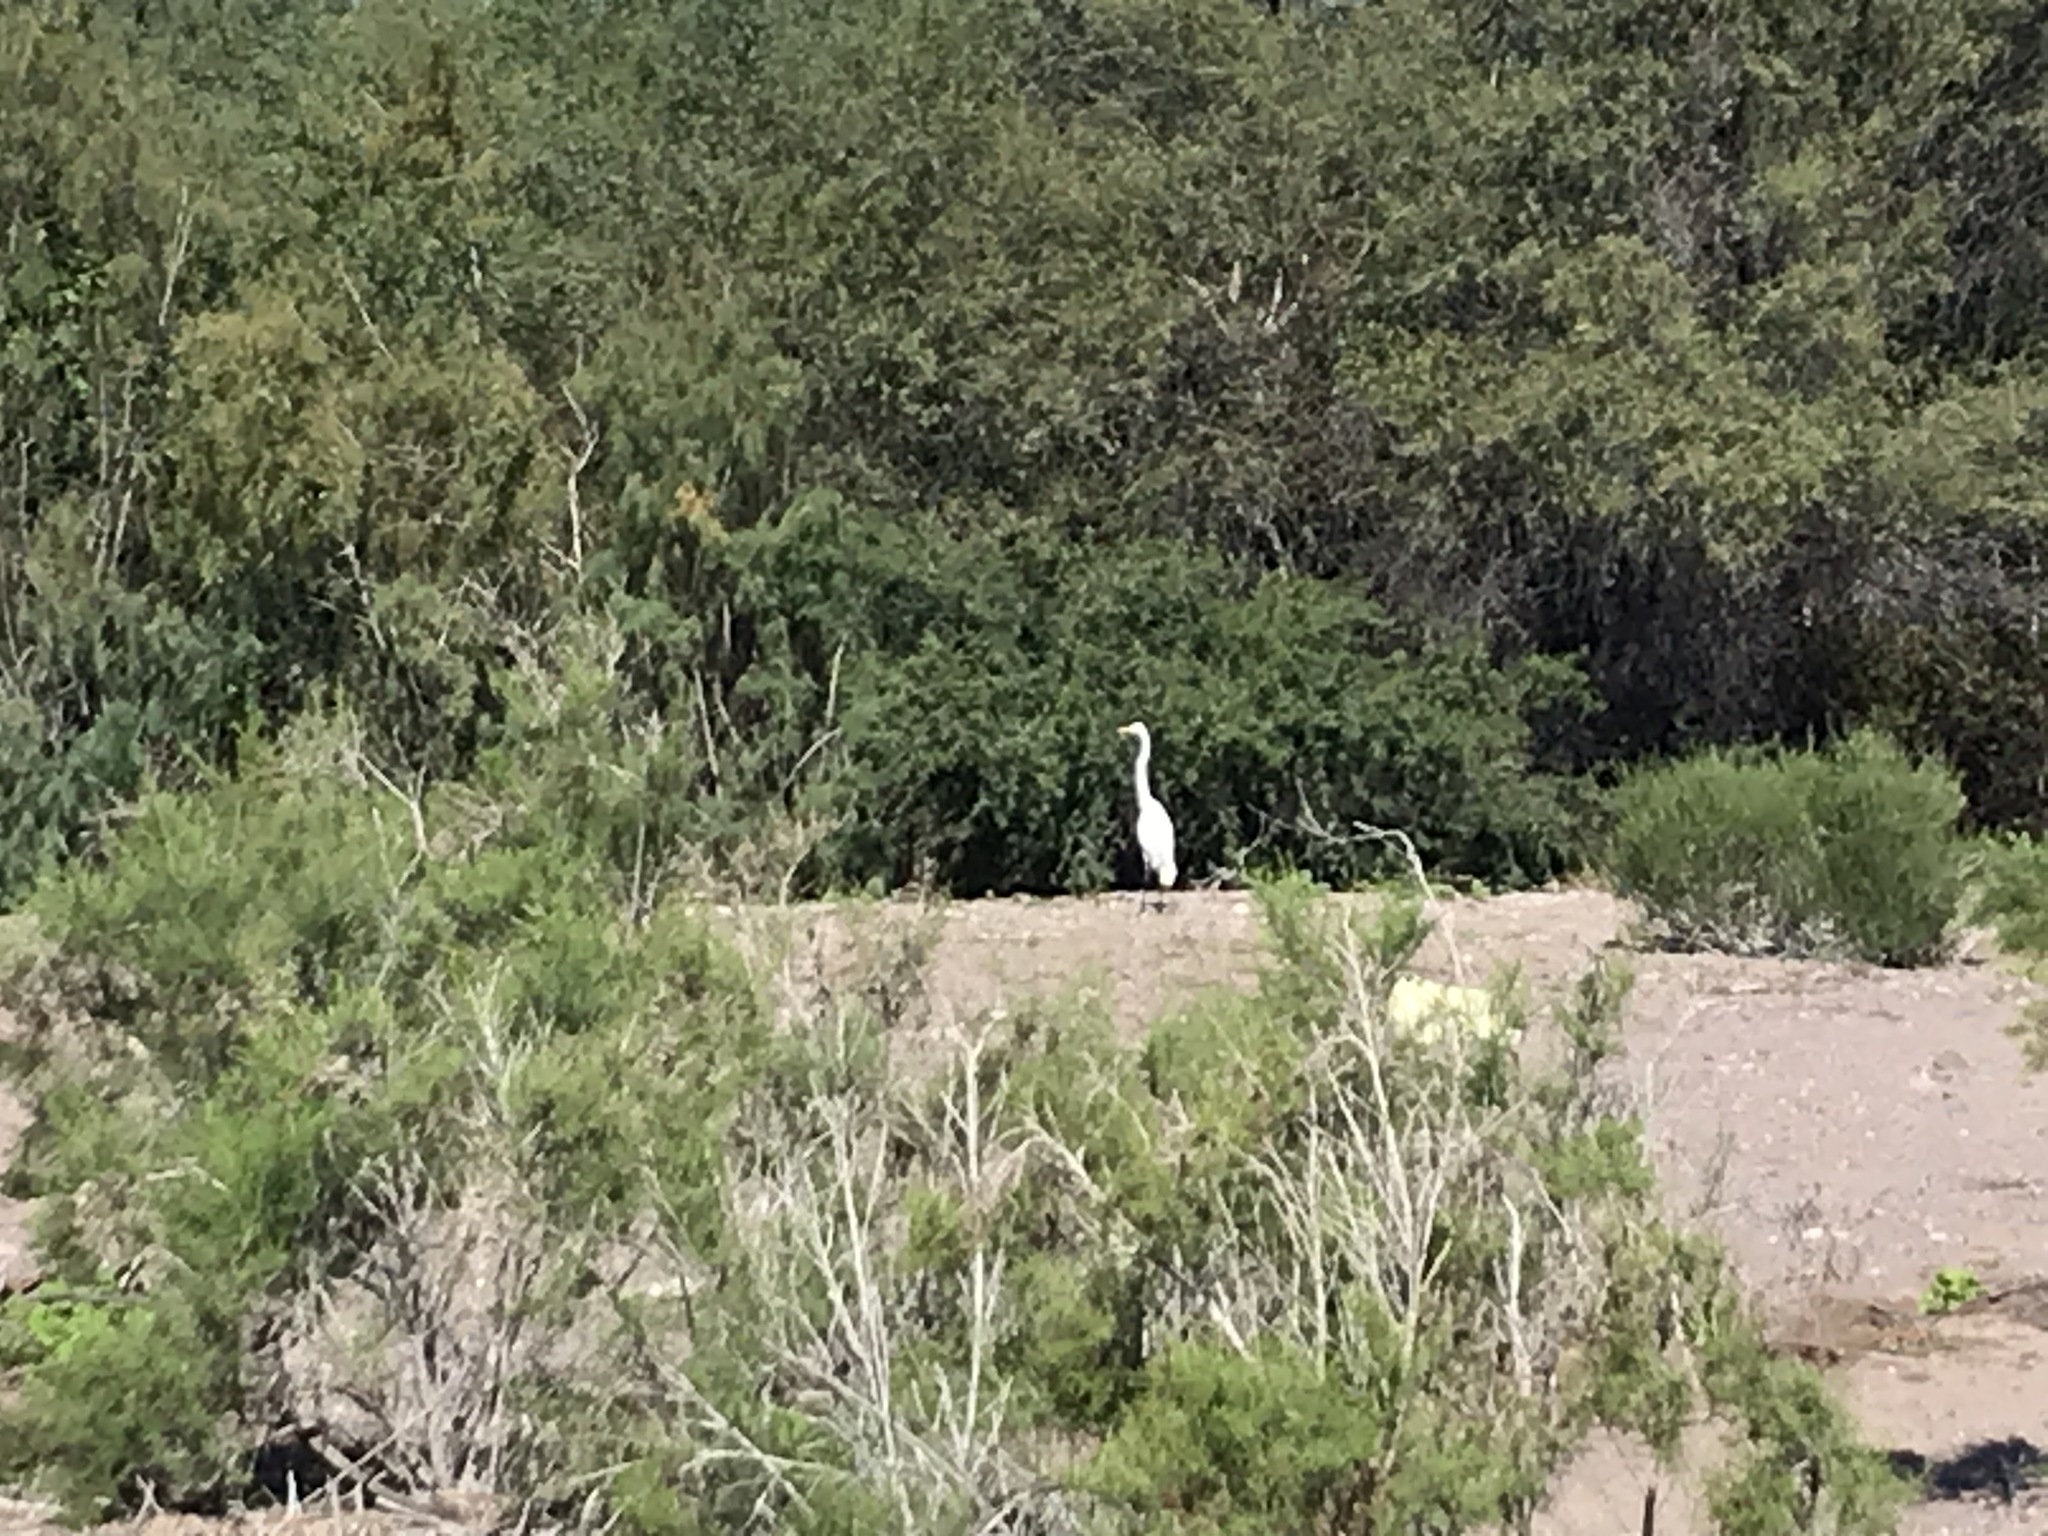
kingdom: Animalia
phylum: Chordata
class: Aves
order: Pelecaniformes
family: Ardeidae
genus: Ardea
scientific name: Ardea alba
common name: Great egret
